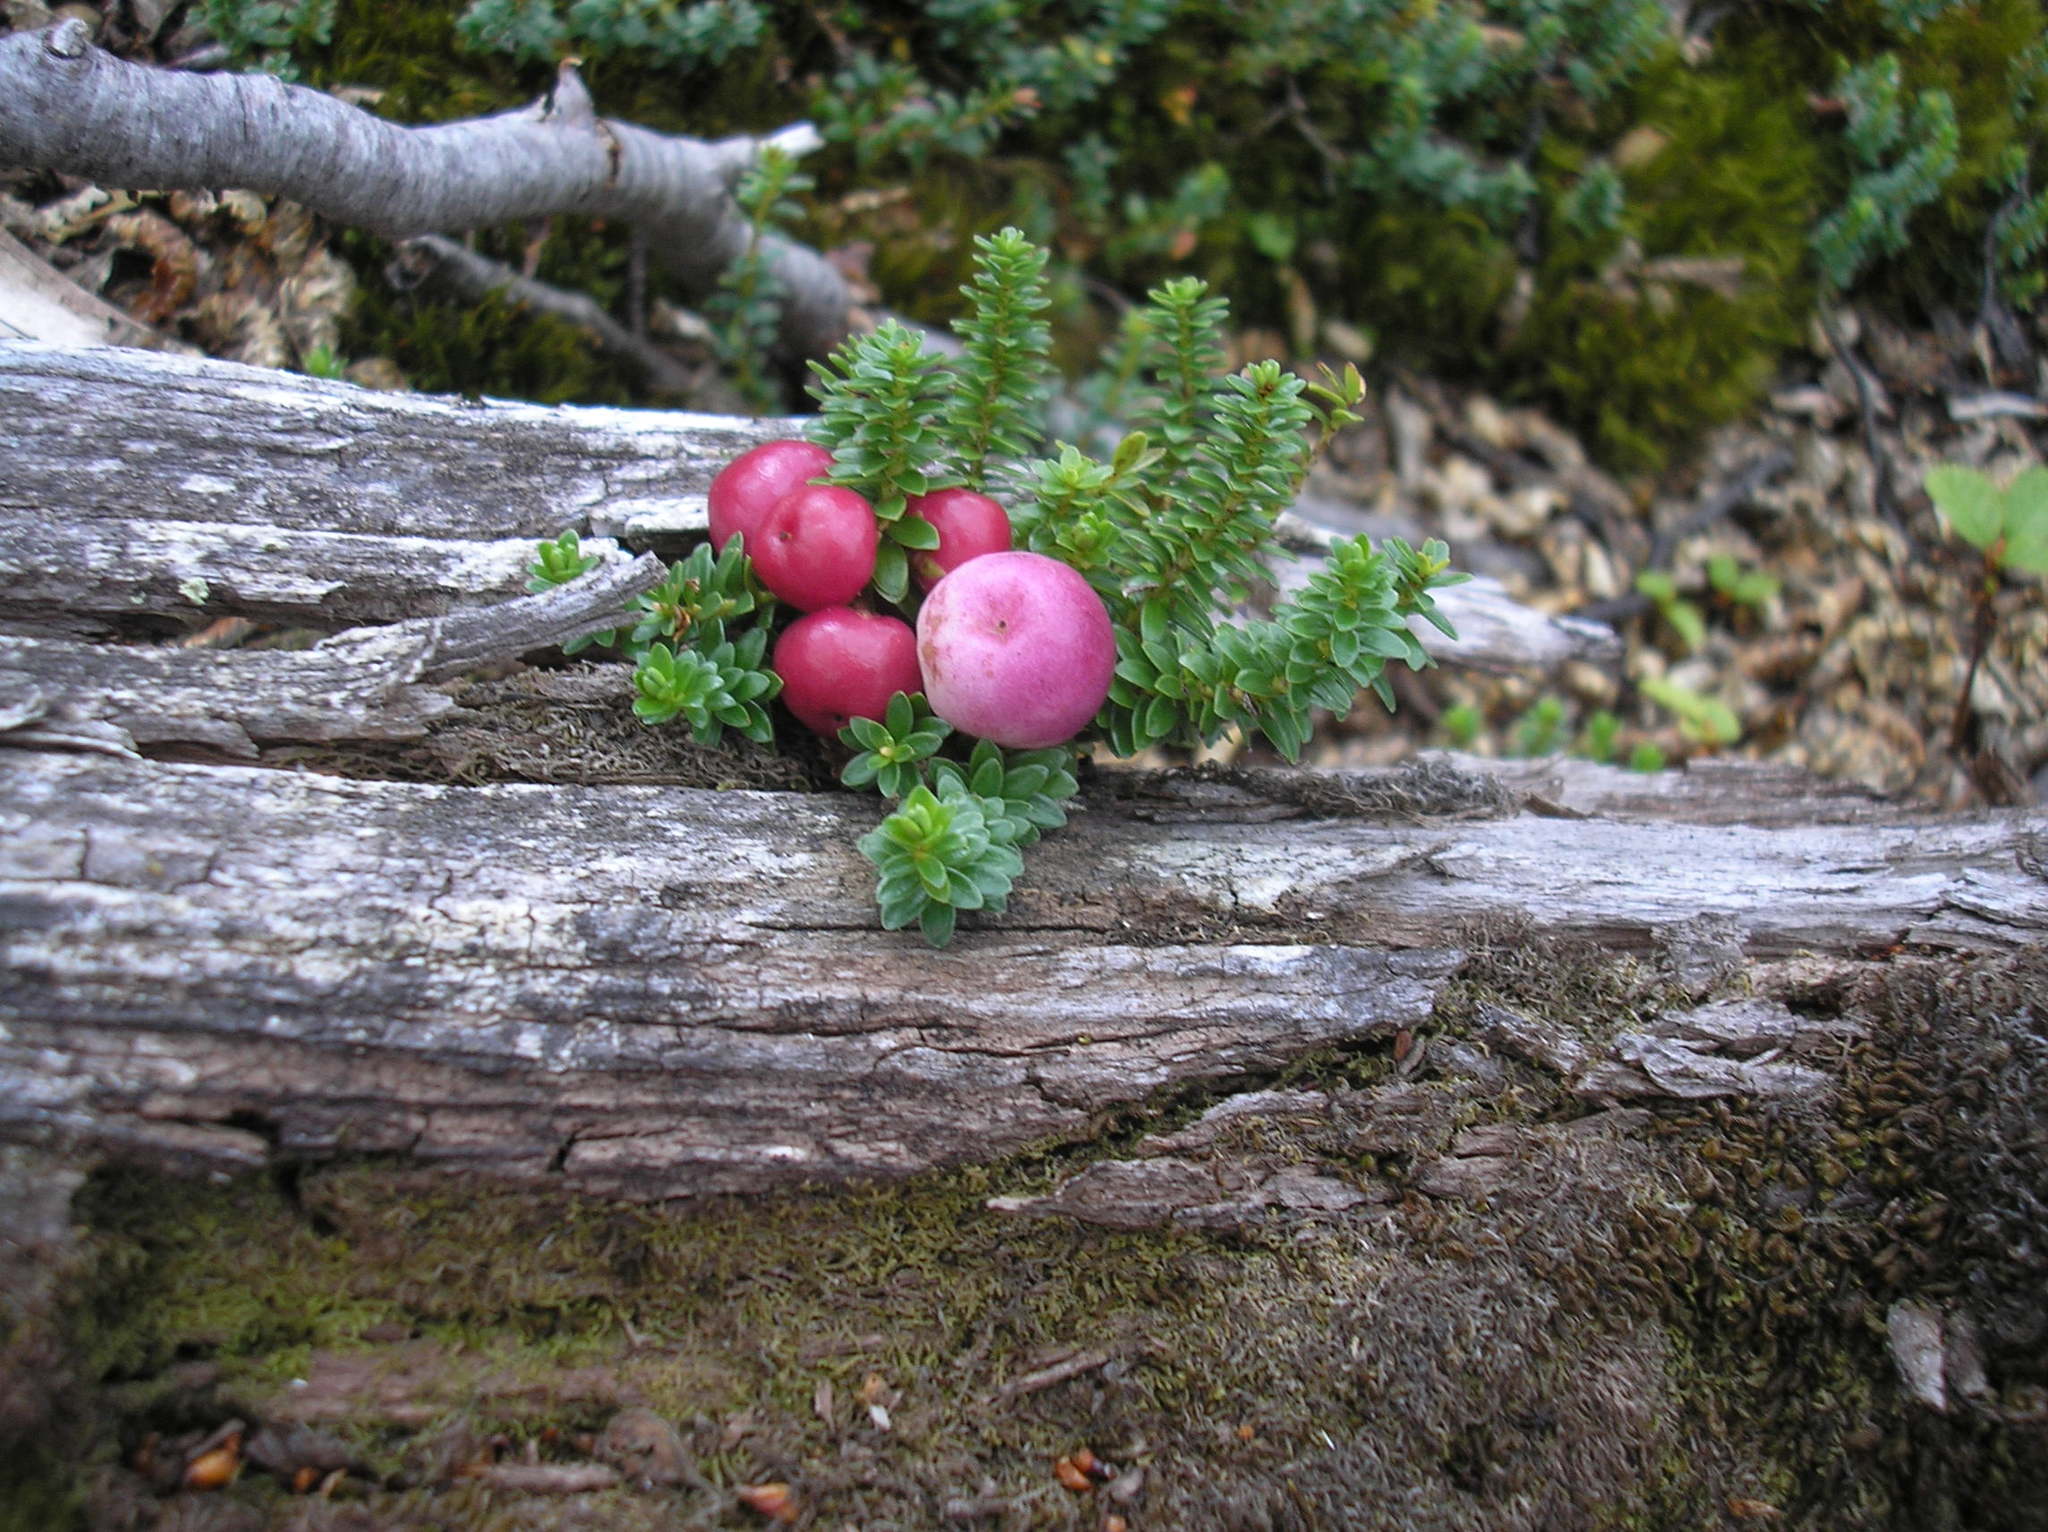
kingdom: Plantae
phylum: Tracheophyta
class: Magnoliopsida
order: Ericales
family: Ericaceae
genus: Gaultheria
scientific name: Gaultheria pumila
